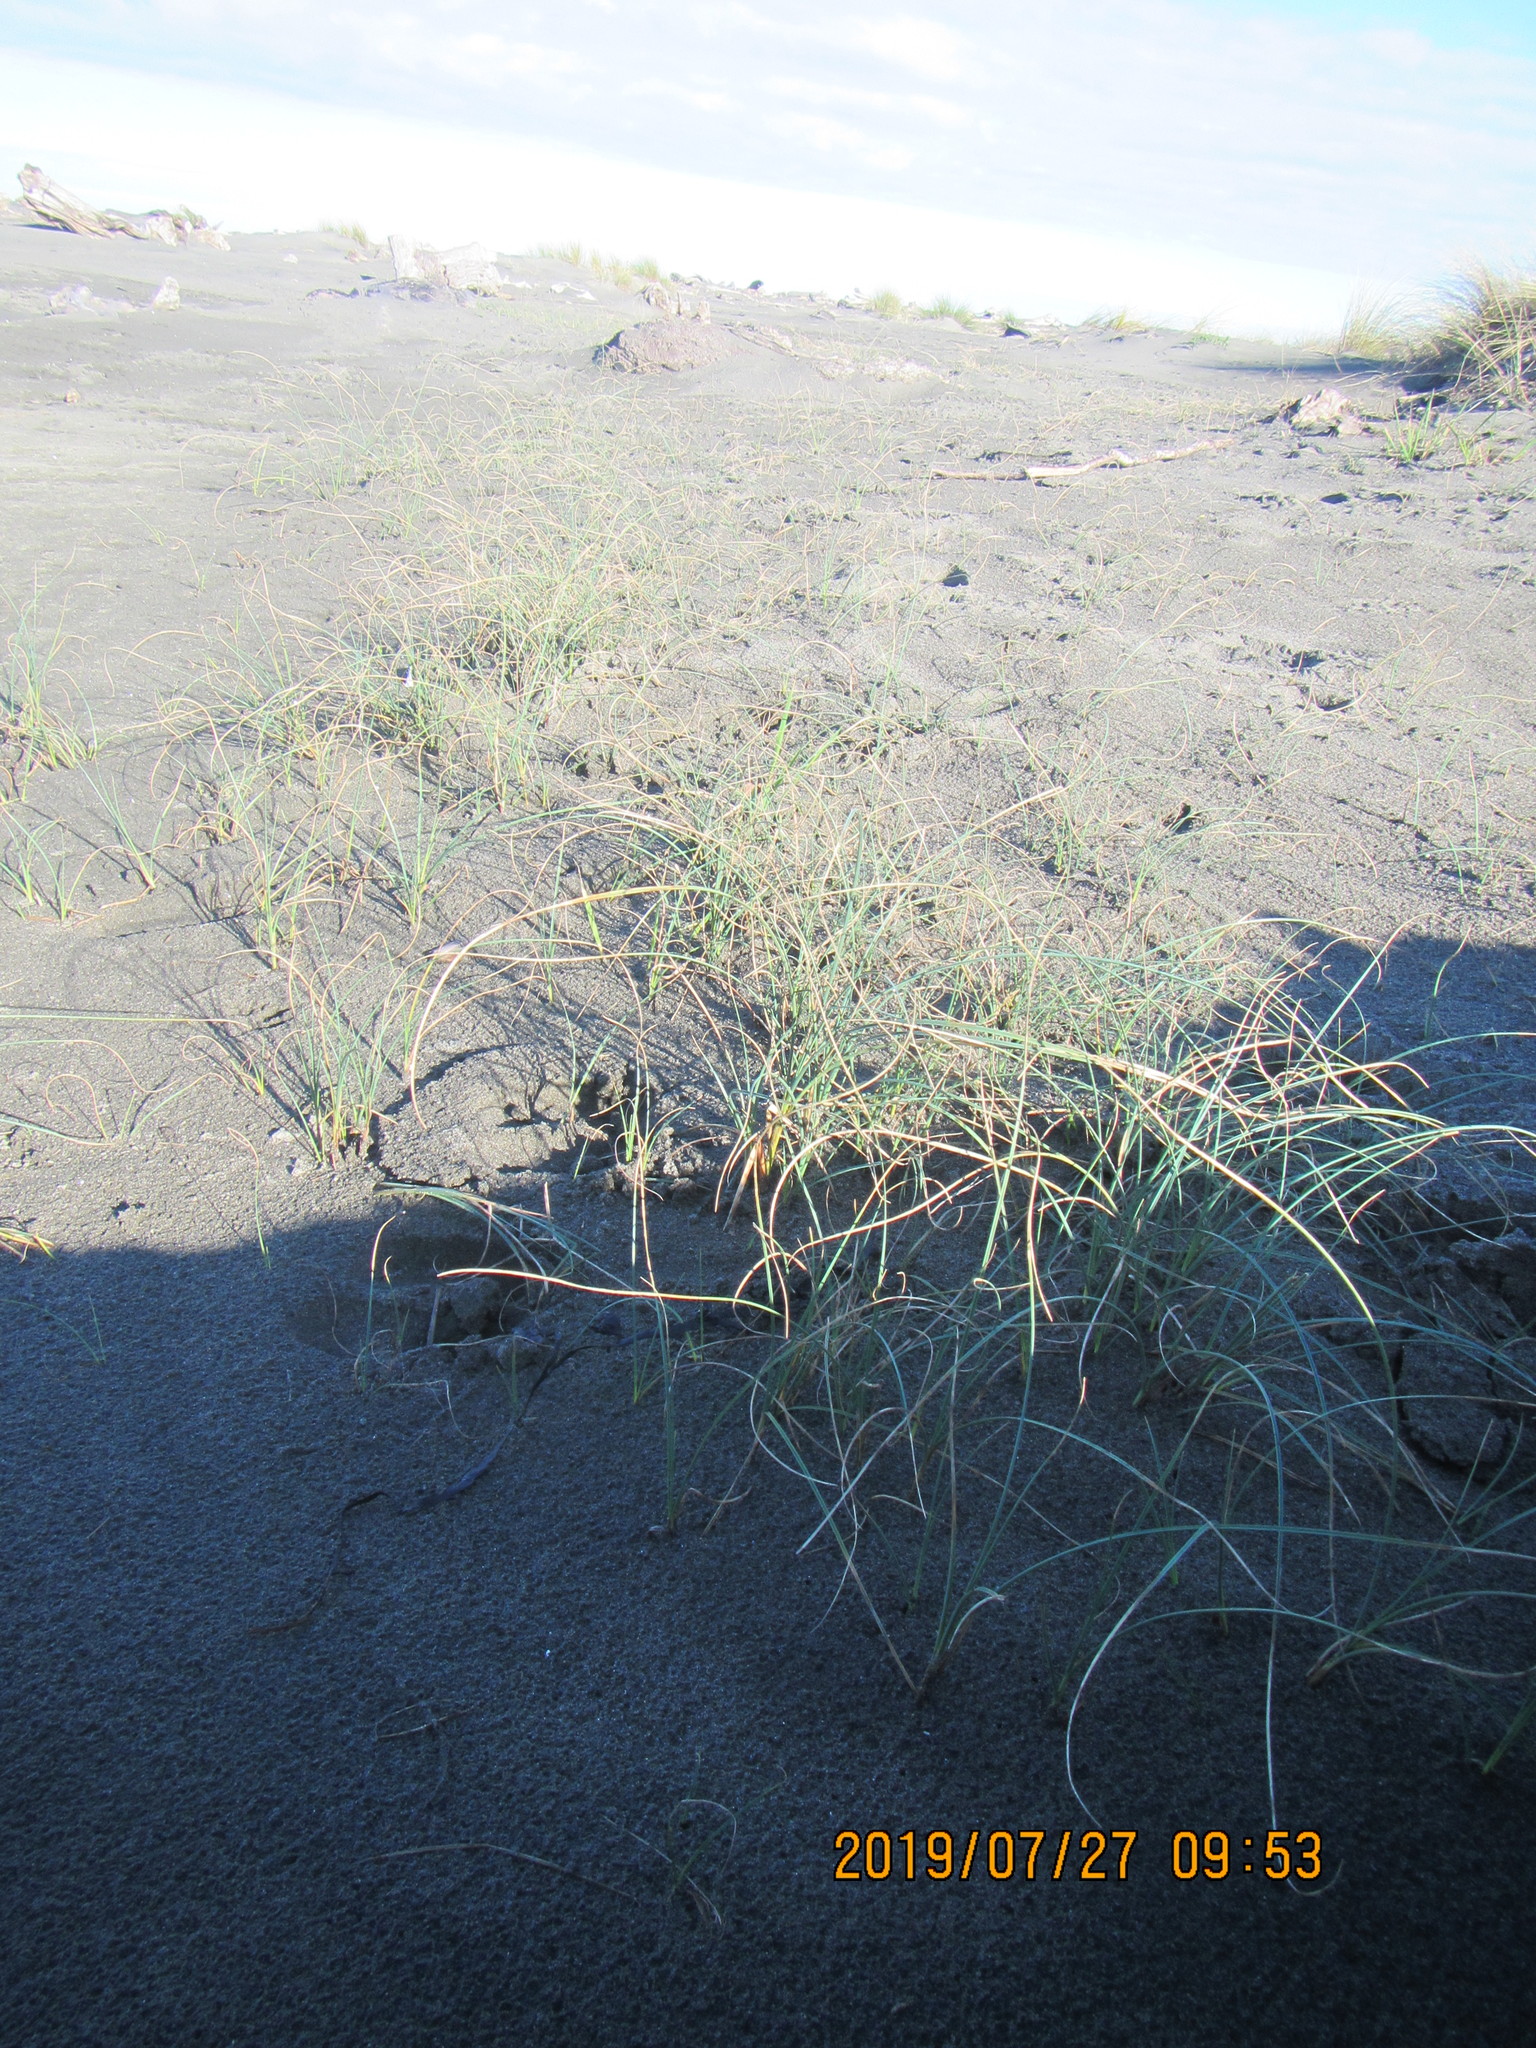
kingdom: Plantae
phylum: Tracheophyta
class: Liliopsida
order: Poales
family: Cyperaceae
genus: Carex
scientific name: Carex pumila
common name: Dwarf sedge
